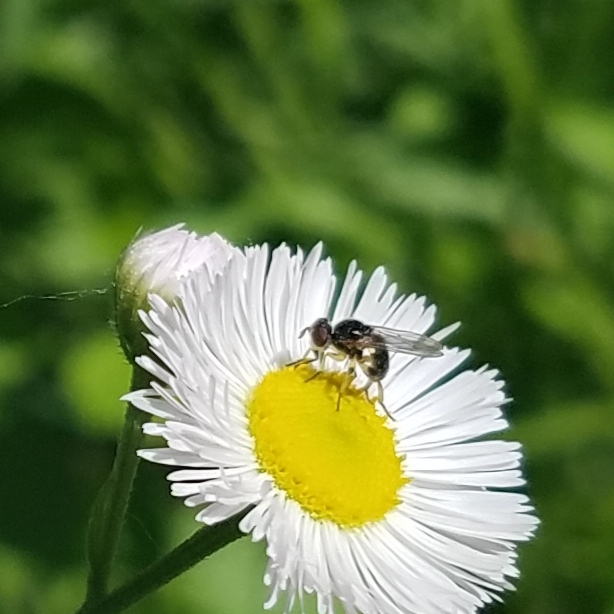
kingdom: Animalia
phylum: Arthropoda
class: Insecta
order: Diptera
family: Conopidae
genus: Dalmannia
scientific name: Dalmannia vitiosa
